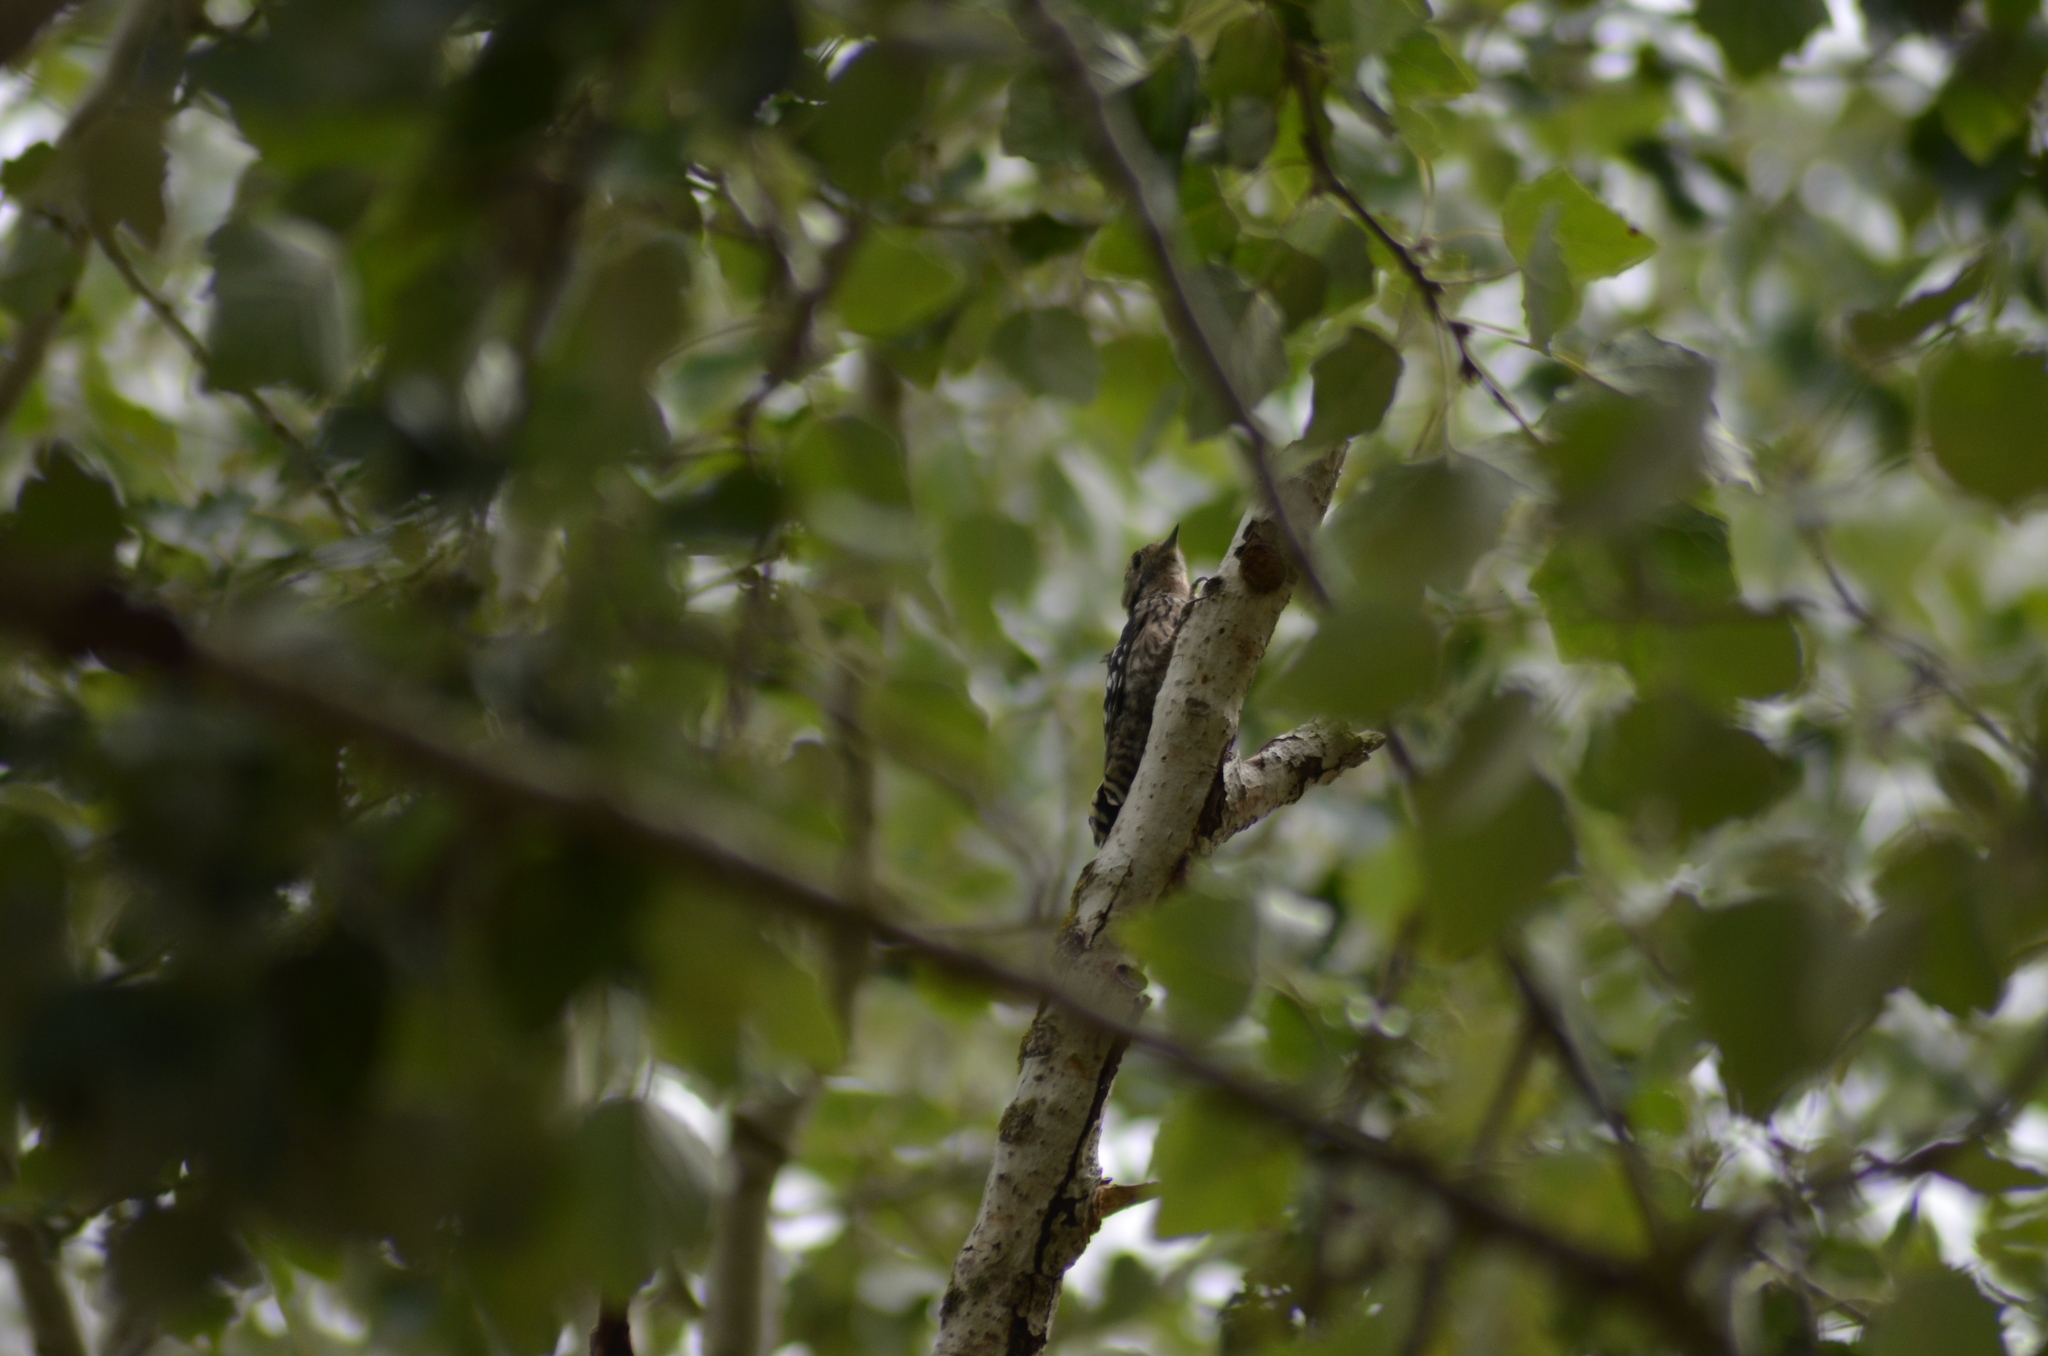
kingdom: Animalia
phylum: Chordata
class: Aves
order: Piciformes
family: Picidae
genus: Dryobates
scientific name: Dryobates minor
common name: Lesser spotted woodpecker
